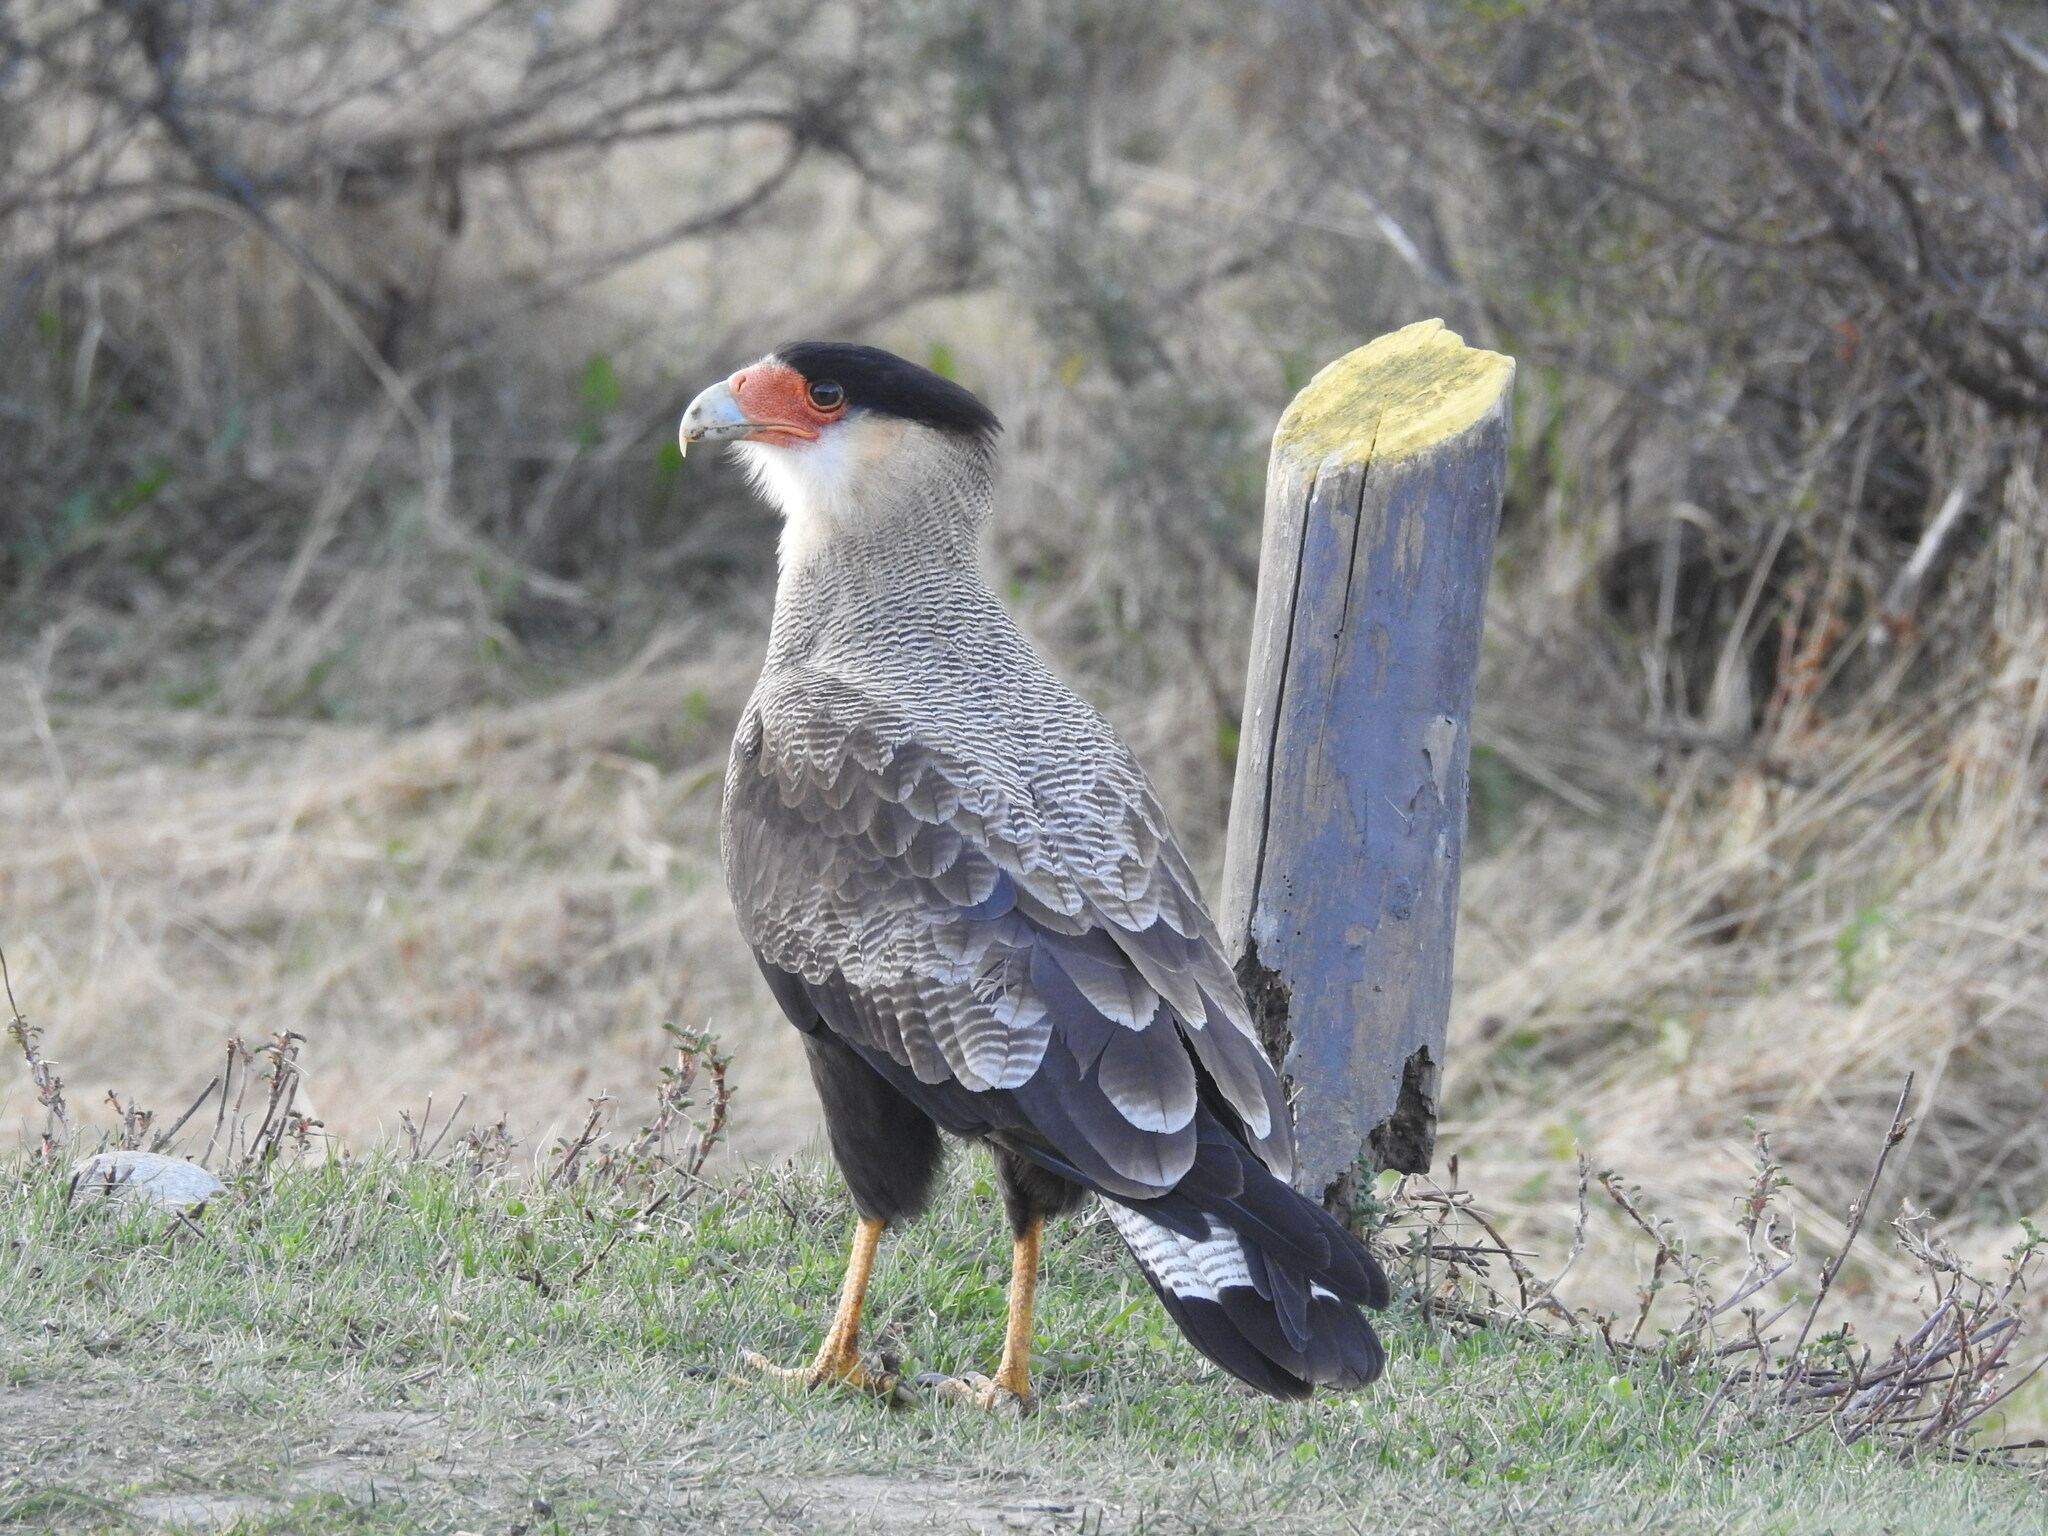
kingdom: Animalia
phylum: Chordata
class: Aves
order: Falconiformes
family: Falconidae
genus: Caracara
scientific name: Caracara plancus
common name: Southern caracara
